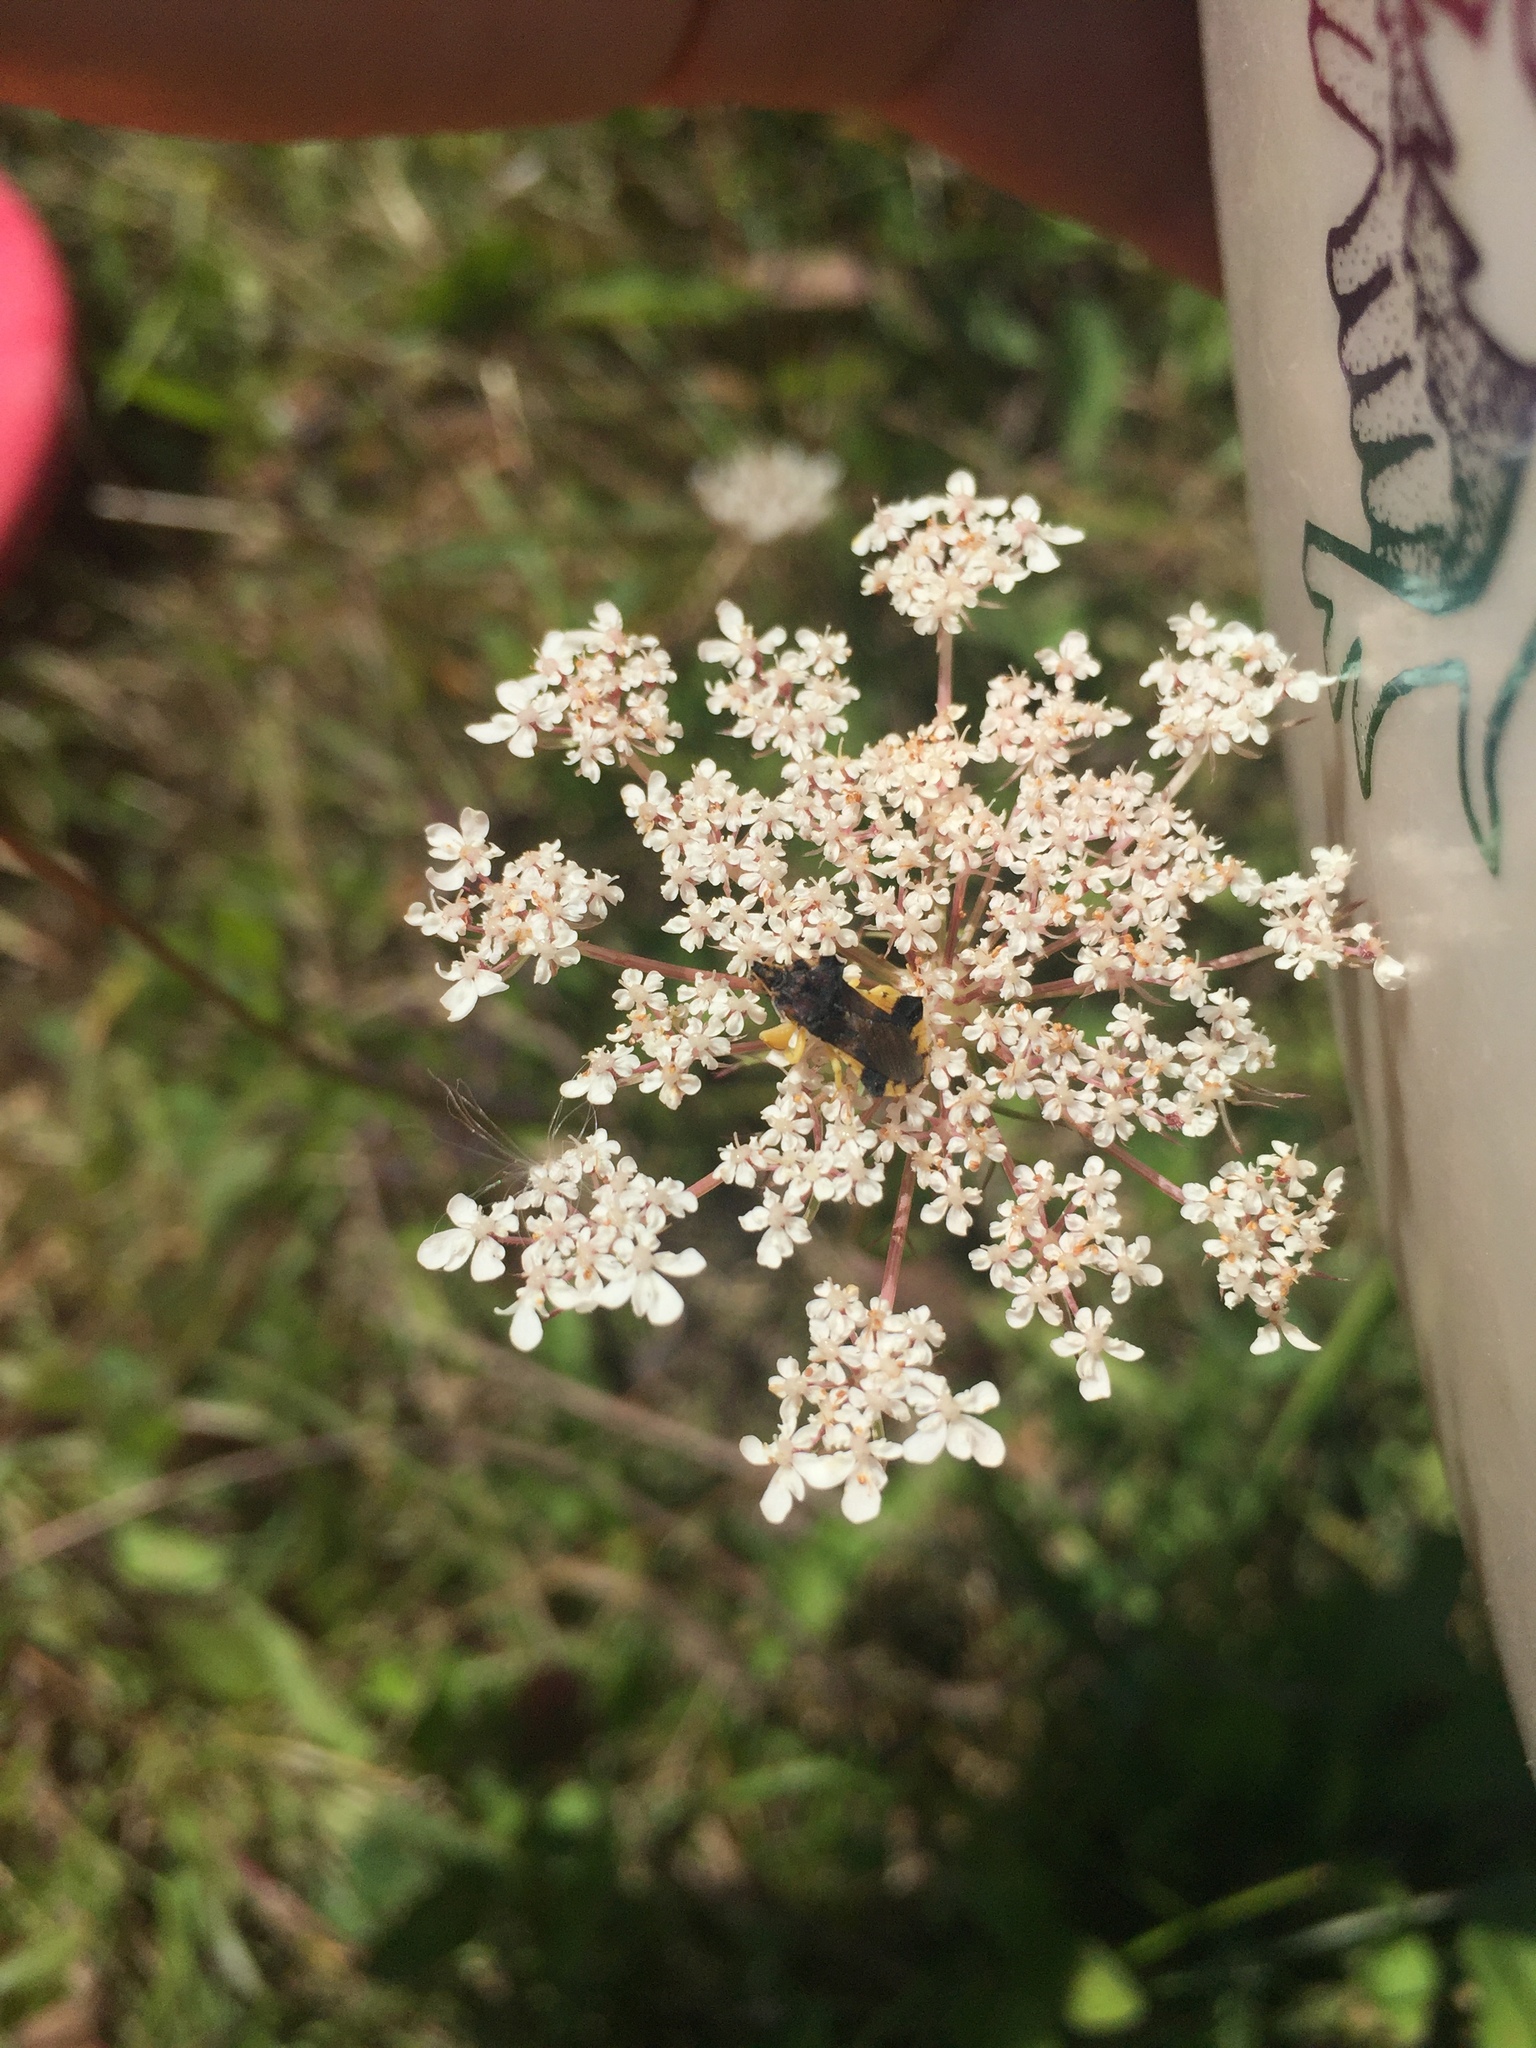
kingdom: Plantae
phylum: Tracheophyta
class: Magnoliopsida
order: Apiales
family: Apiaceae
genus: Daucus
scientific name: Daucus carota
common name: Wild carrot
